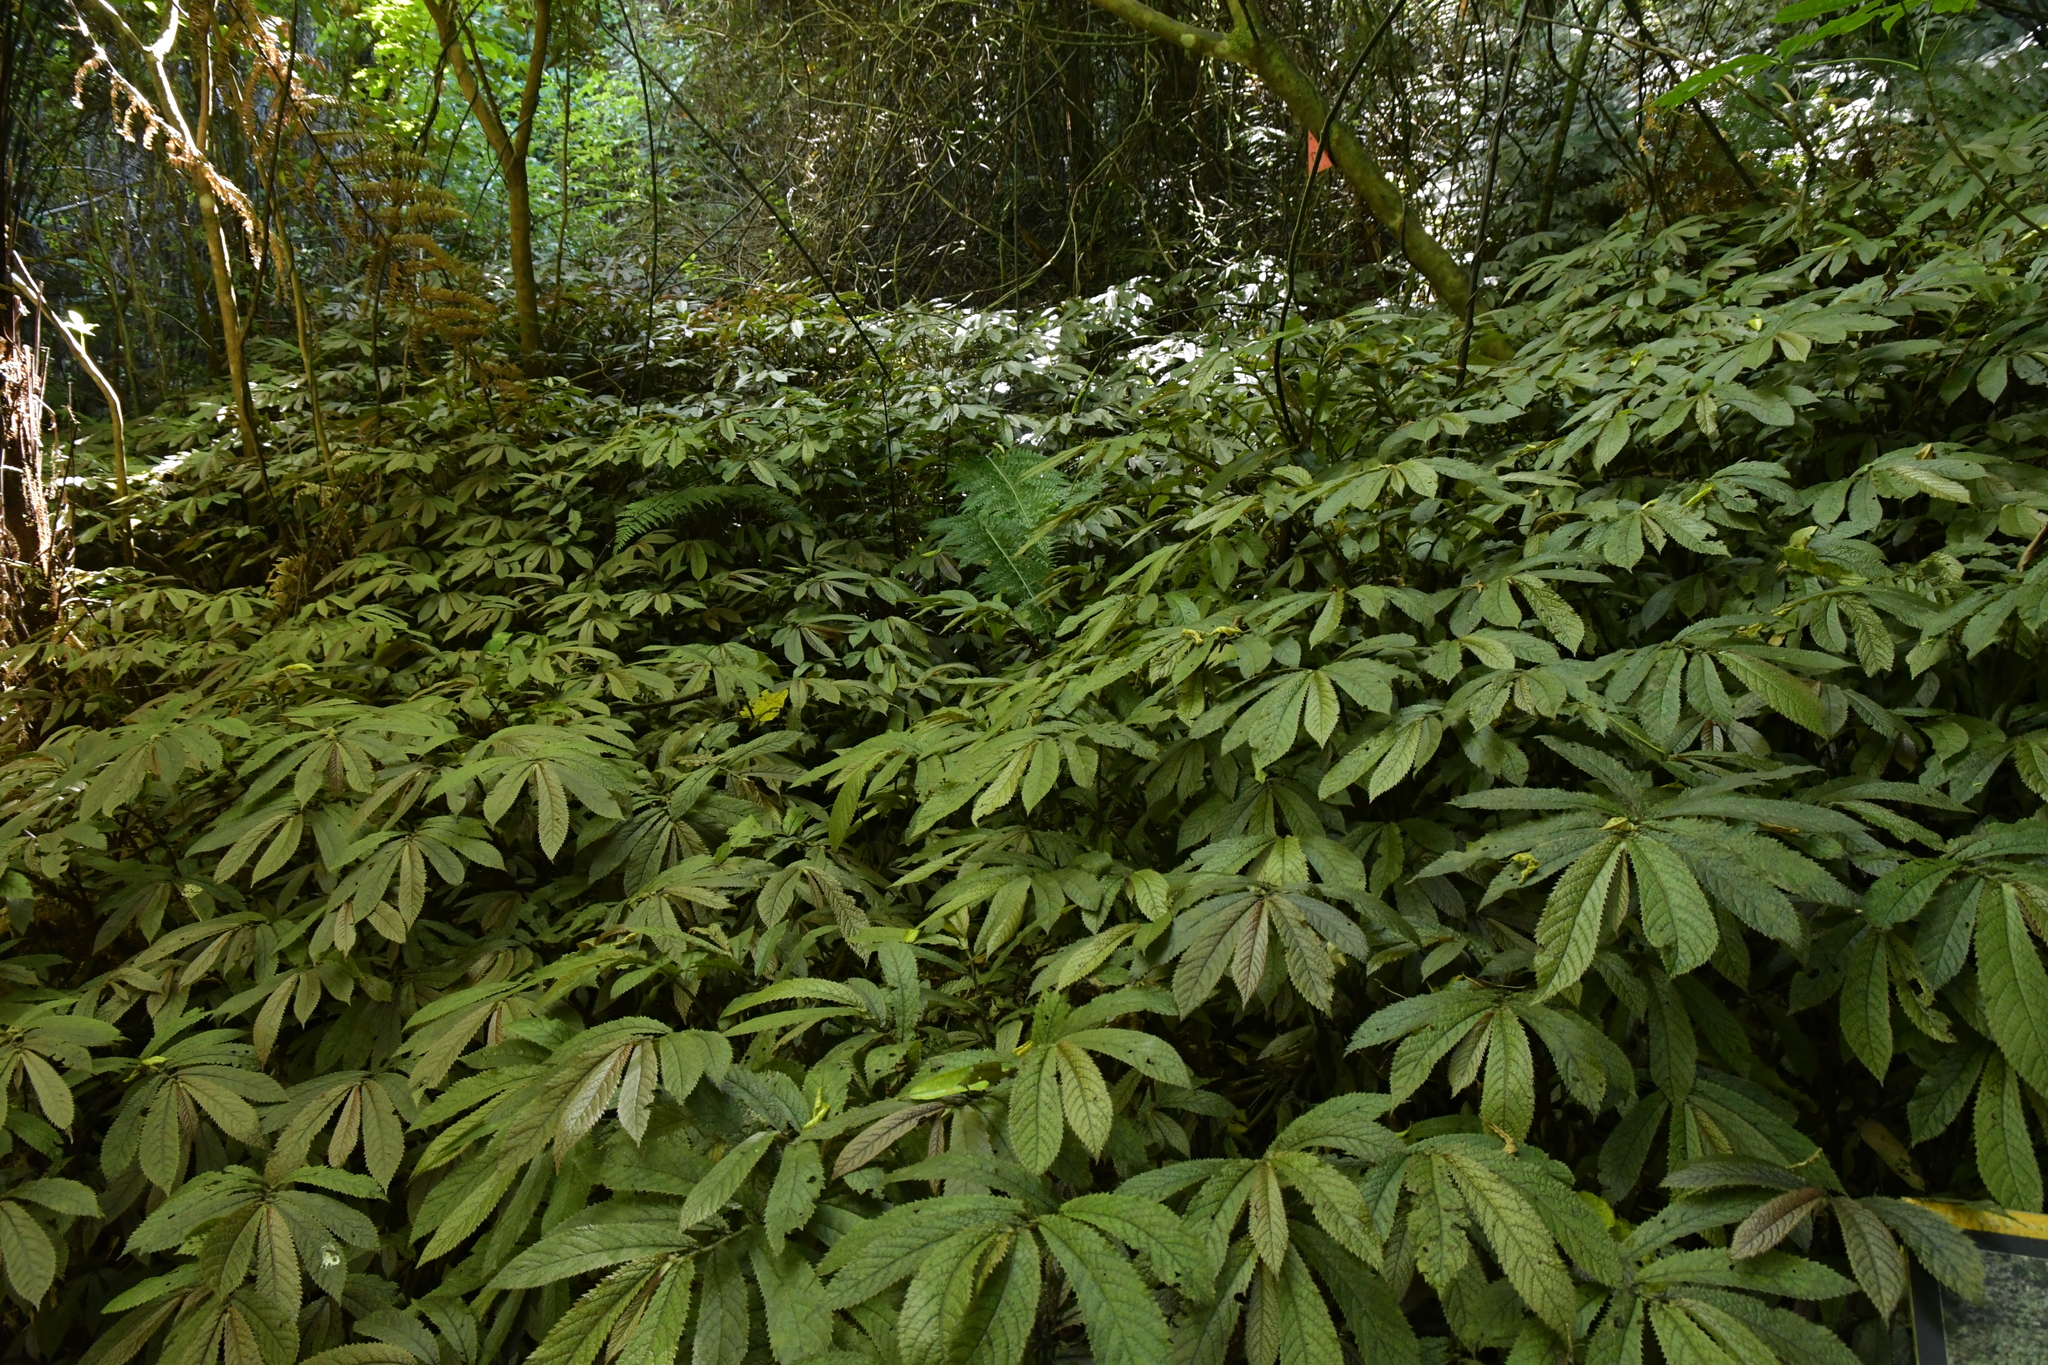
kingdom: Plantae
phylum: Tracheophyta
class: Magnoliopsida
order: Rosales
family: Urticaceae
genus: Elatostema
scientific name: Elatostema rugosum
